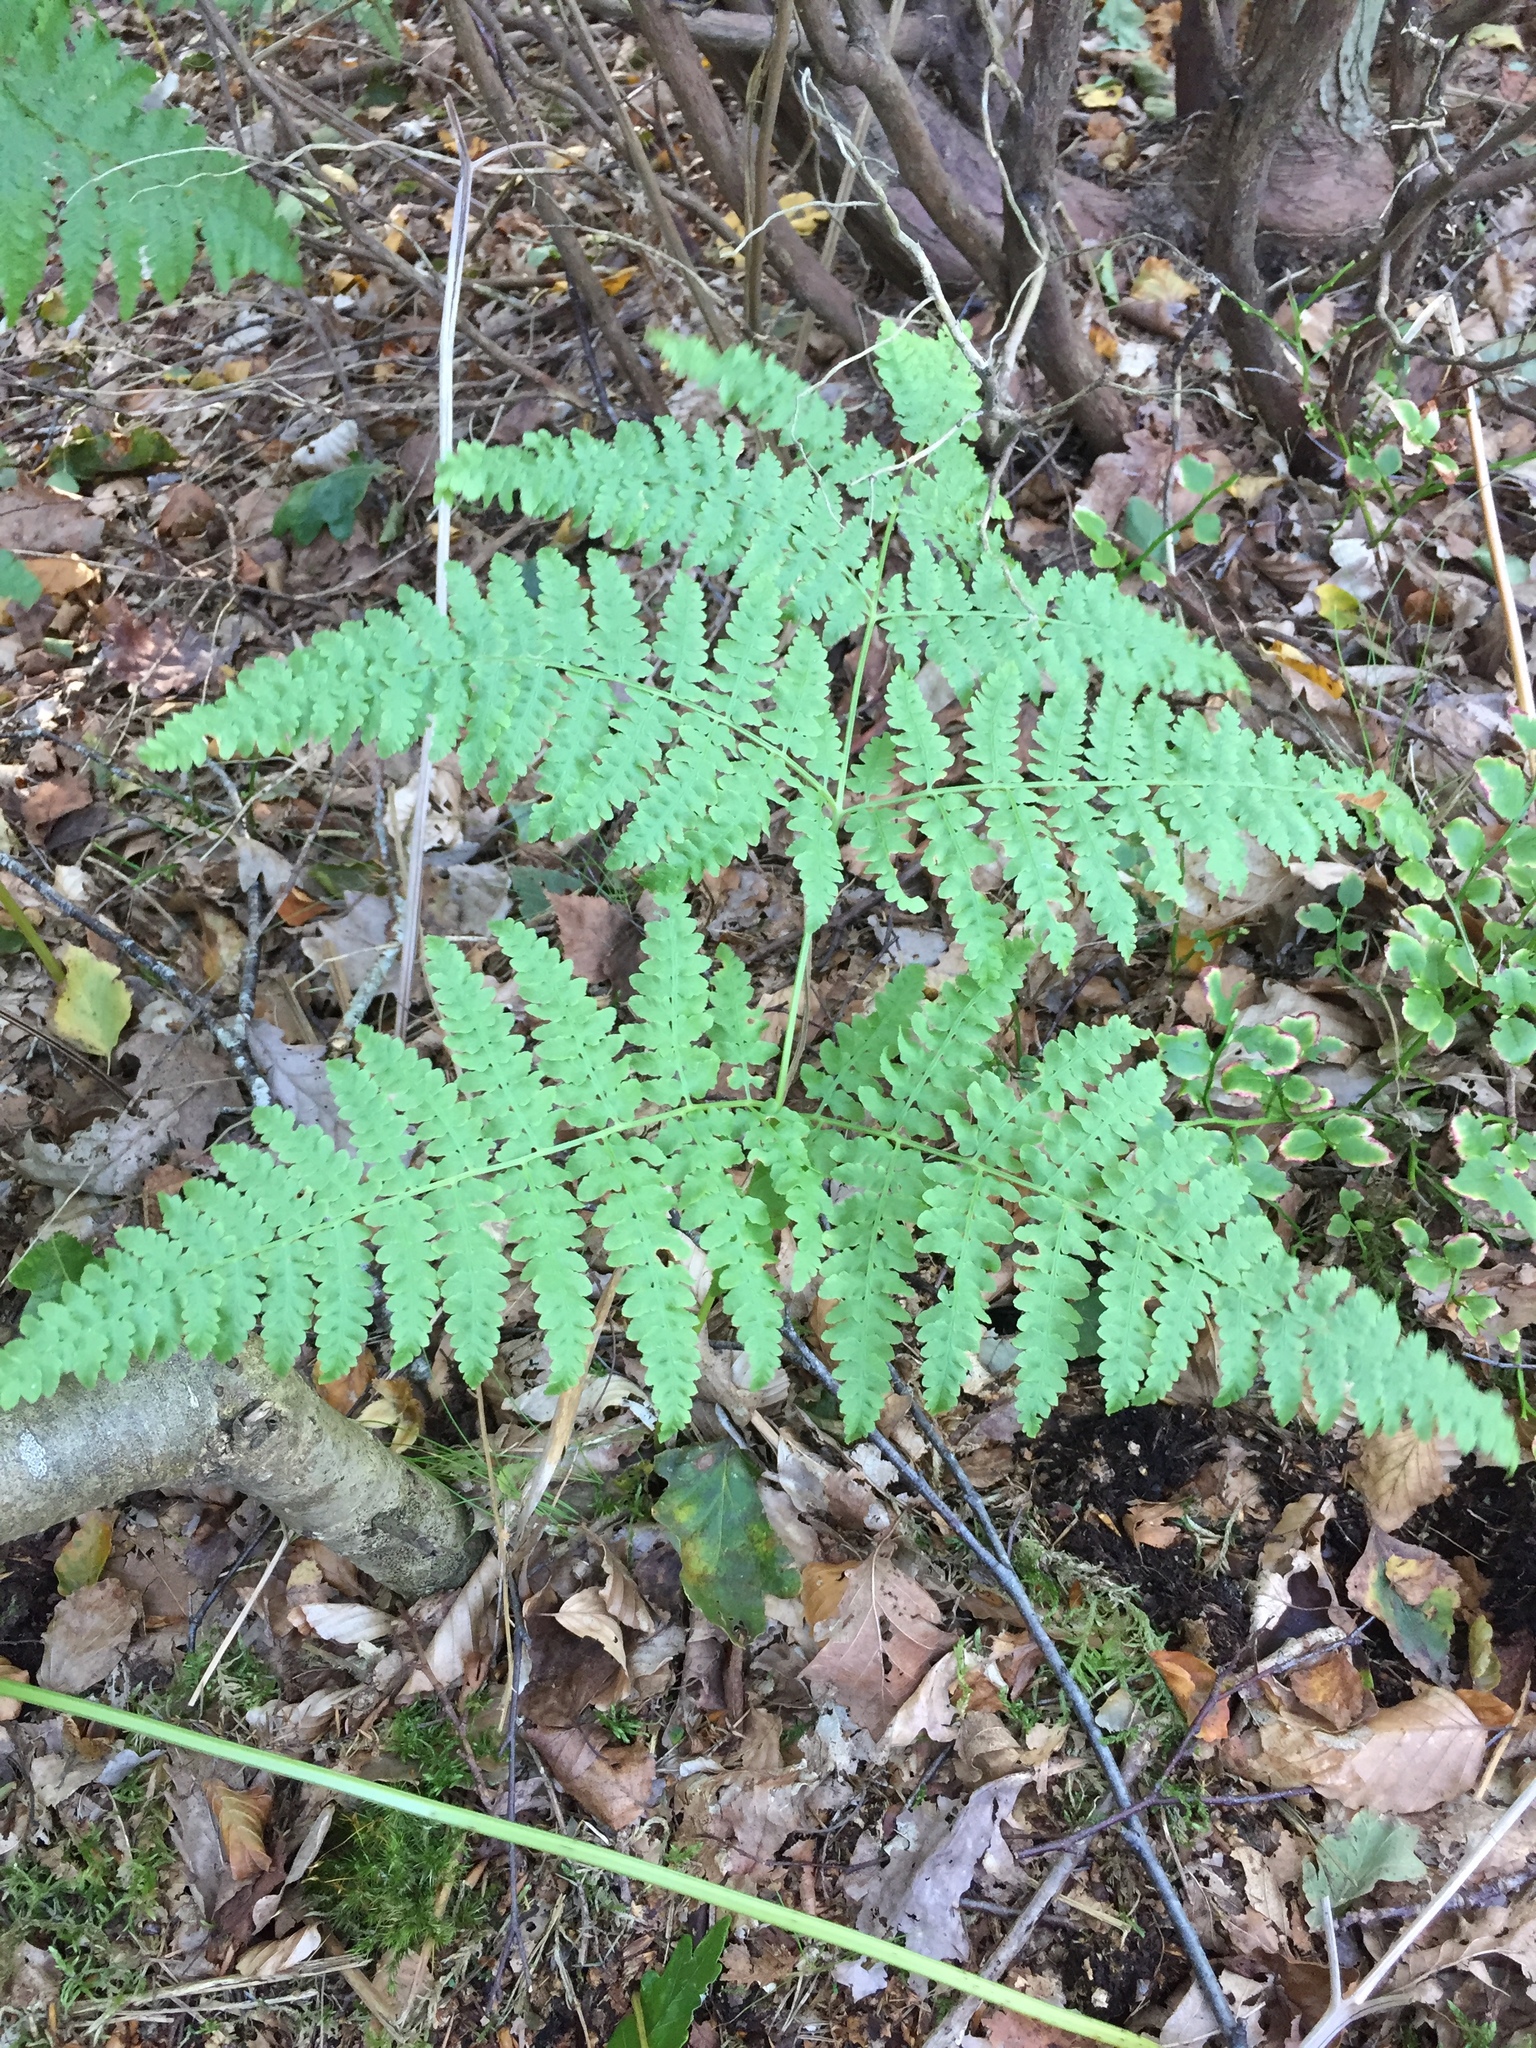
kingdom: Plantae
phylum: Tracheophyta
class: Polypodiopsida
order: Polypodiales
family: Dennstaedtiaceae
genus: Pteridium
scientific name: Pteridium aquilinum
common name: Bracken
